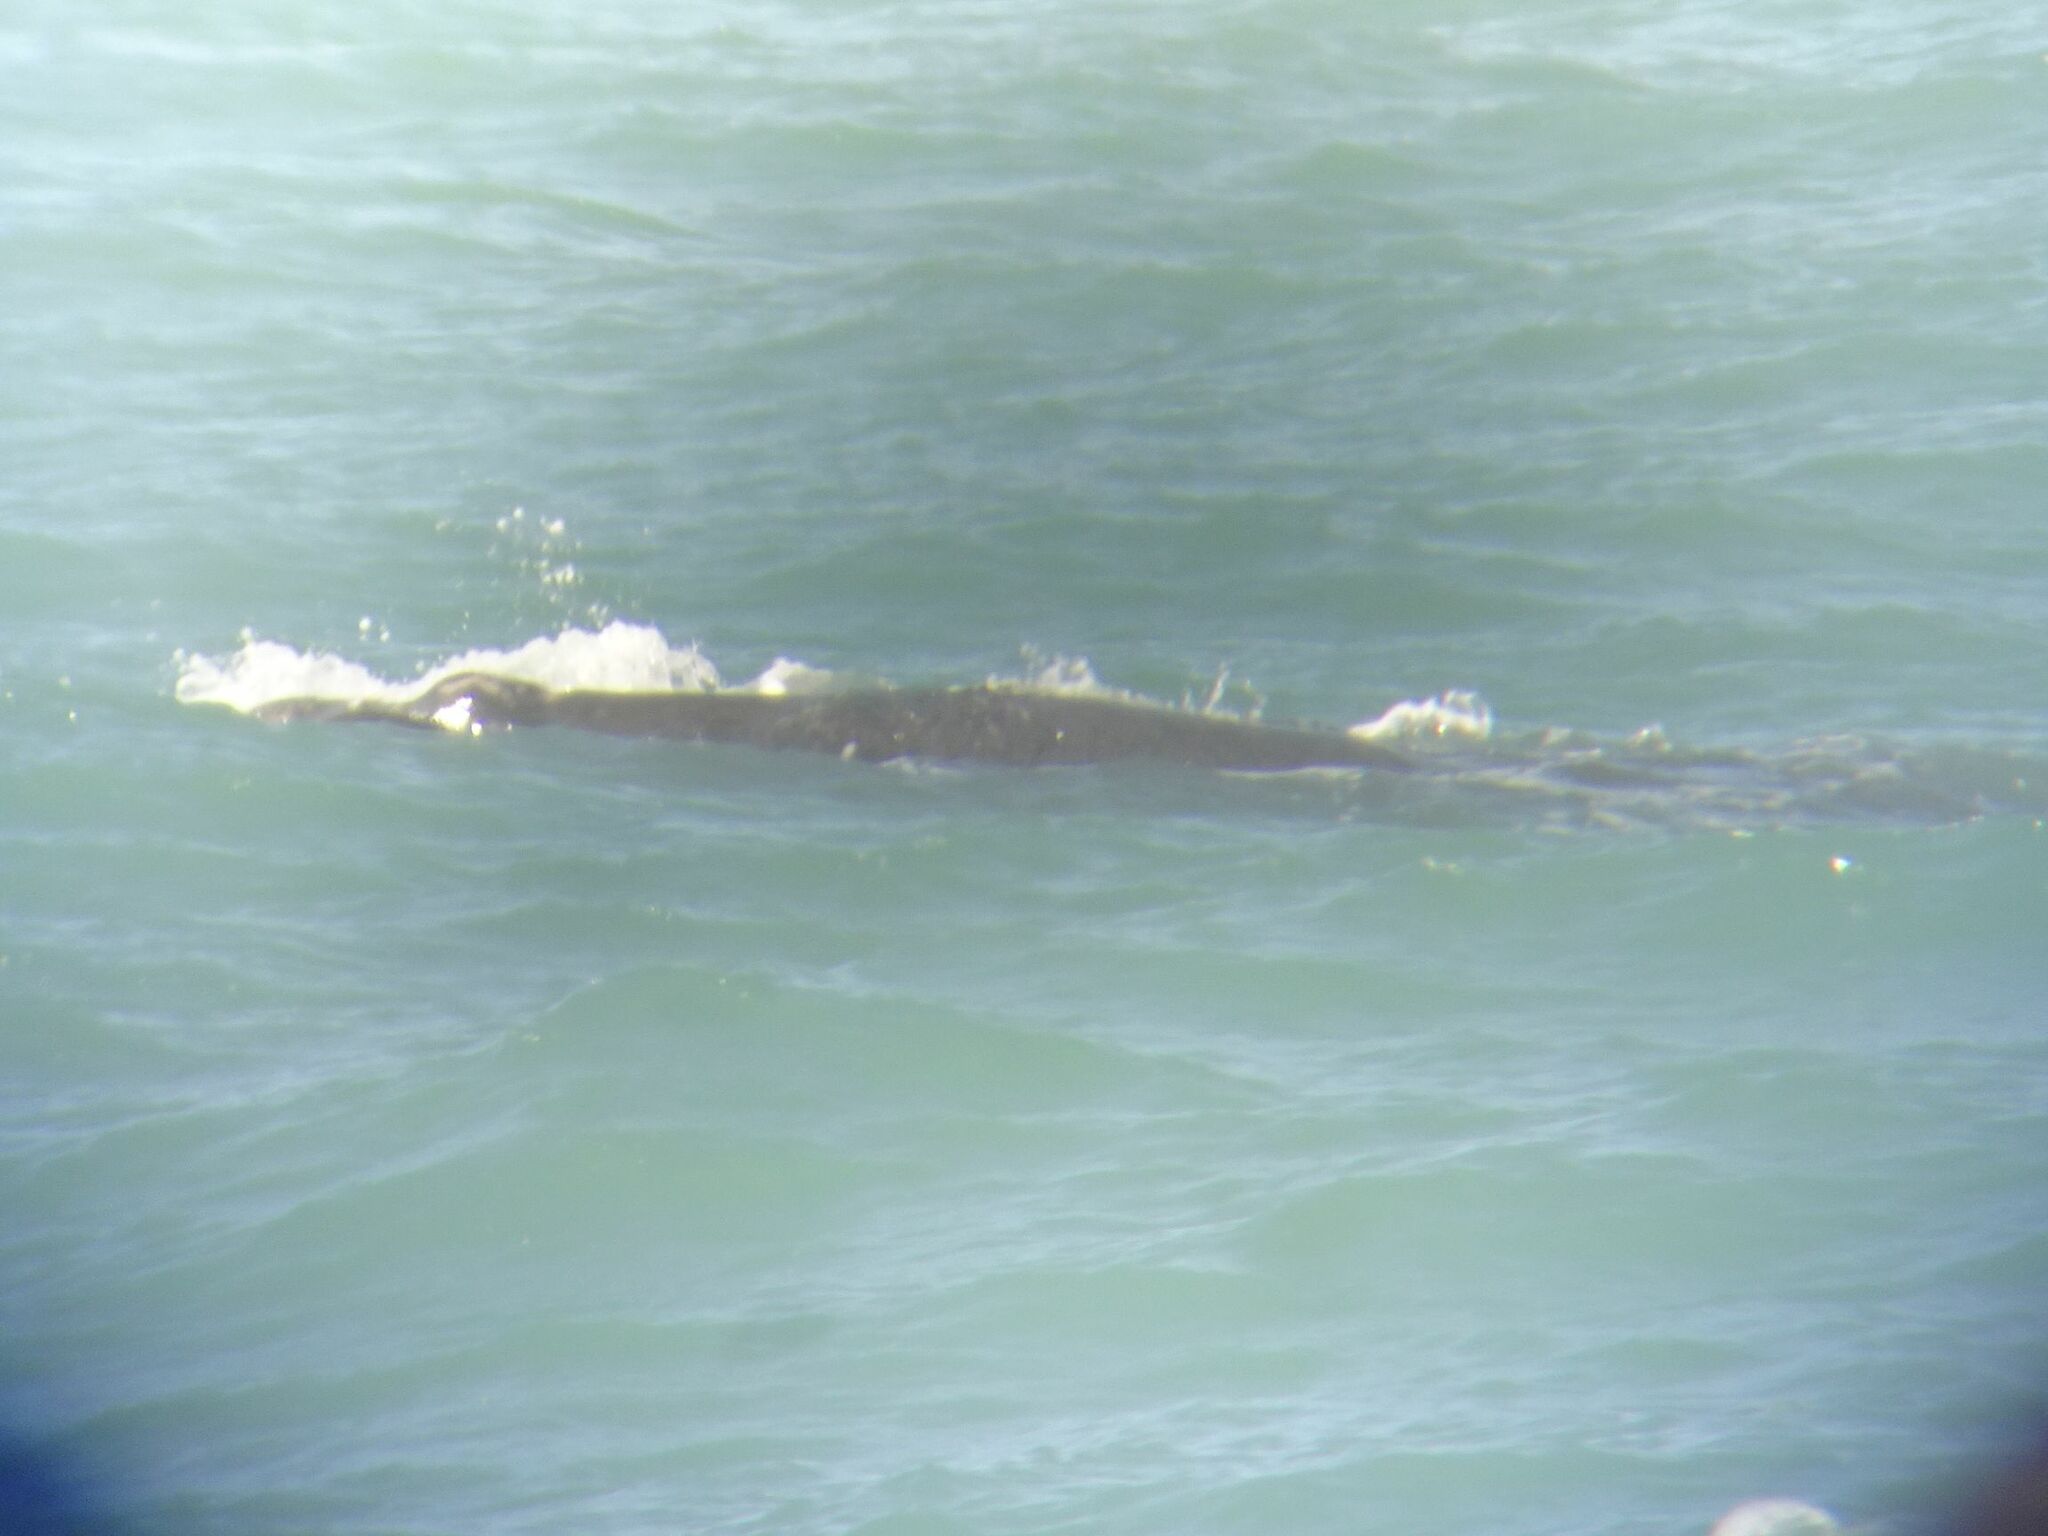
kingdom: Animalia
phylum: Chordata
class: Mammalia
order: Cetacea
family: Balaenidae
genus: Eubalaena
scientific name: Eubalaena australis
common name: Southern right whale
